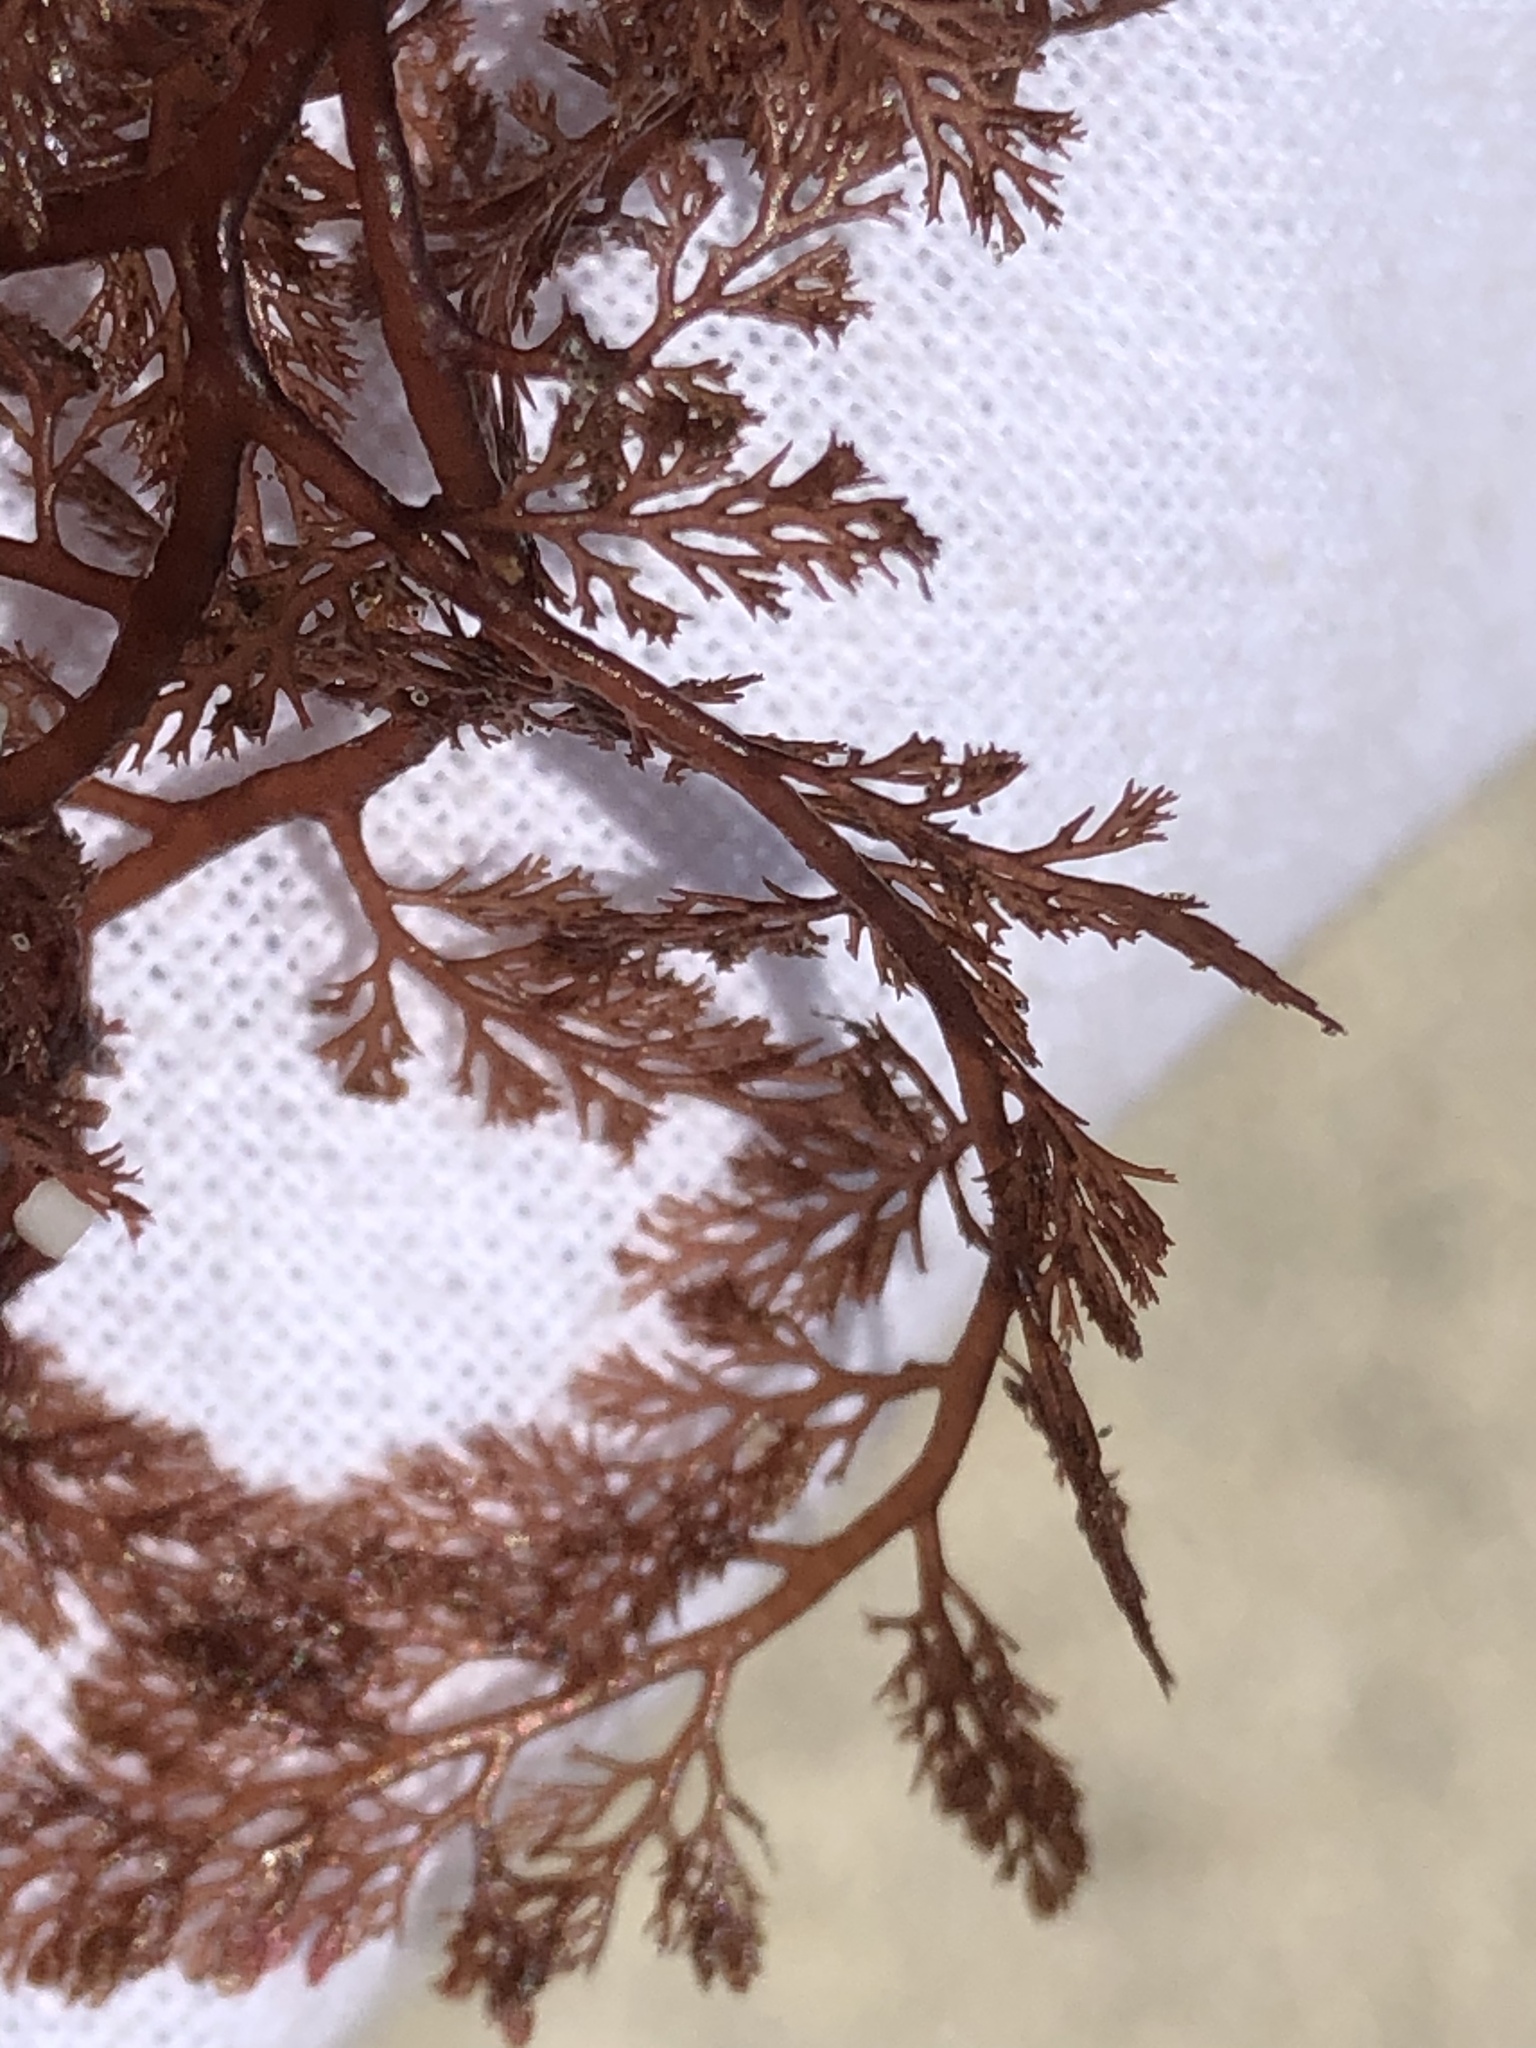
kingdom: Plantae
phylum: Rhodophyta
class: Florideophyceae
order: Ceramiales
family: Ceramiaceae
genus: Microcladia
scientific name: Microcladia coulteri
